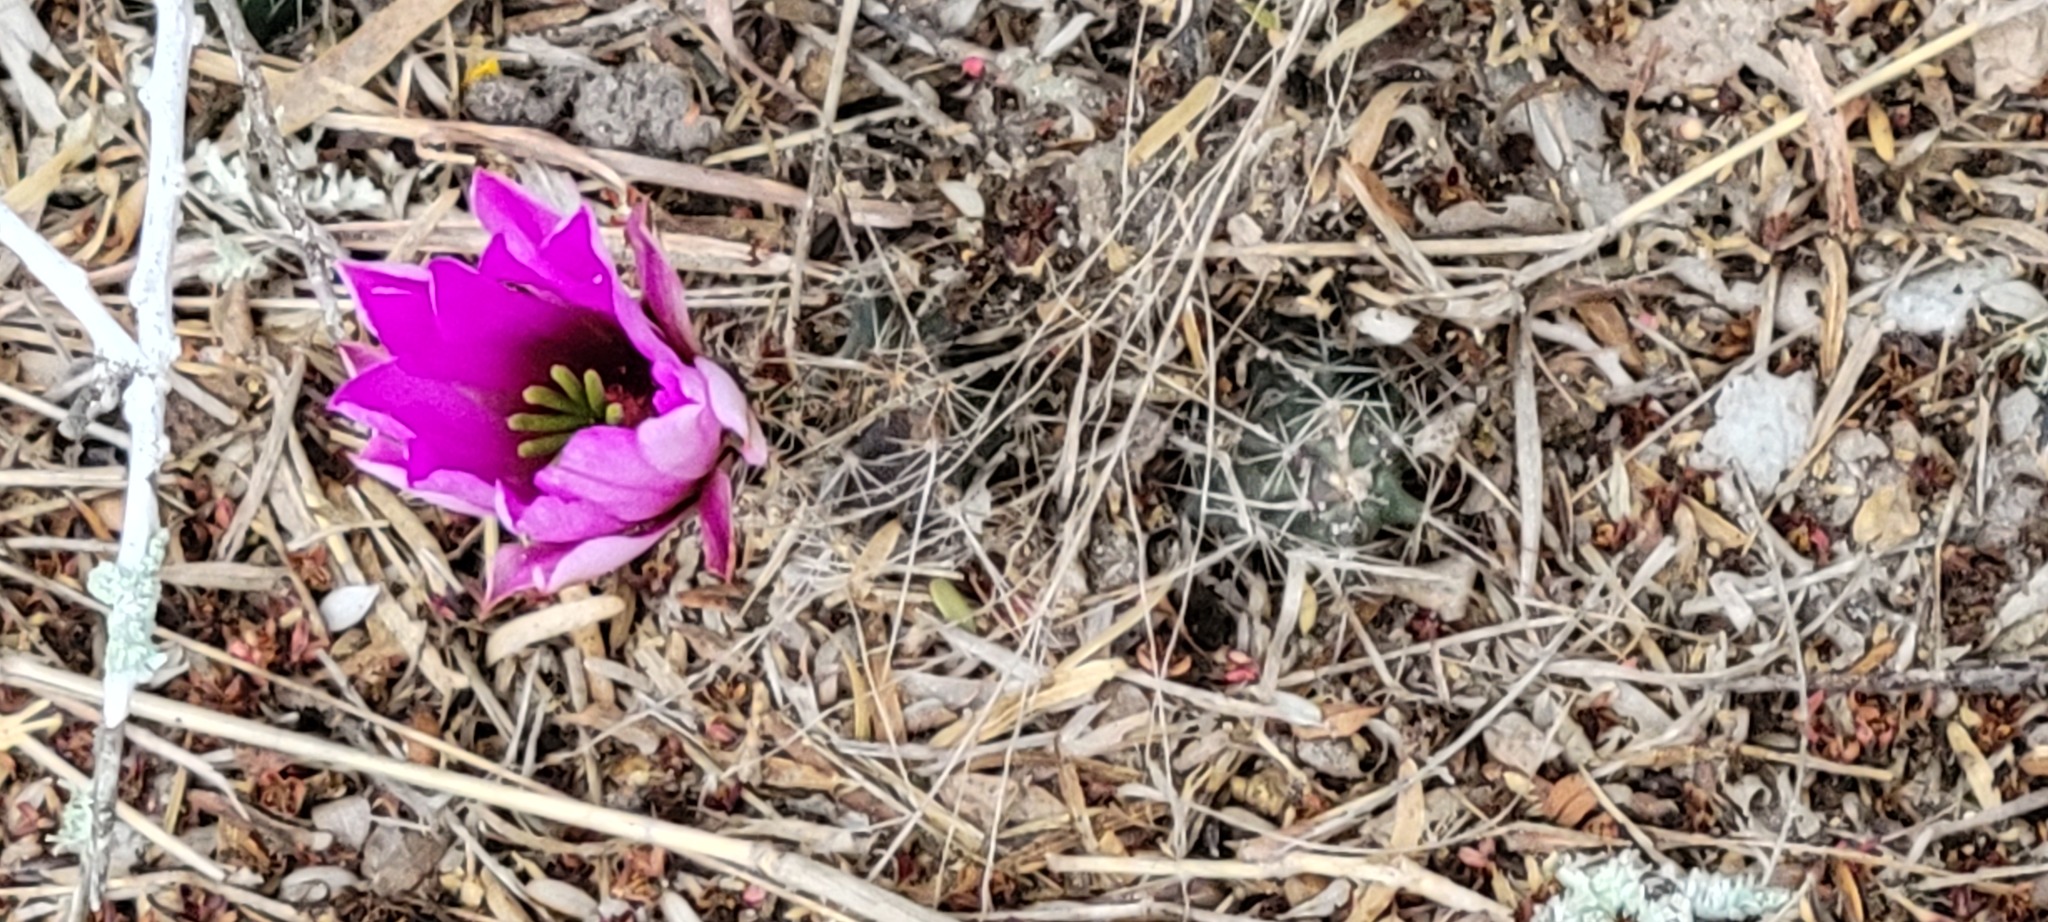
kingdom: Plantae
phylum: Tracheophyta
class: Magnoliopsida
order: Caryophyllales
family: Cactaceae
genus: Echinocereus
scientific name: Echinocereus berlandieri
